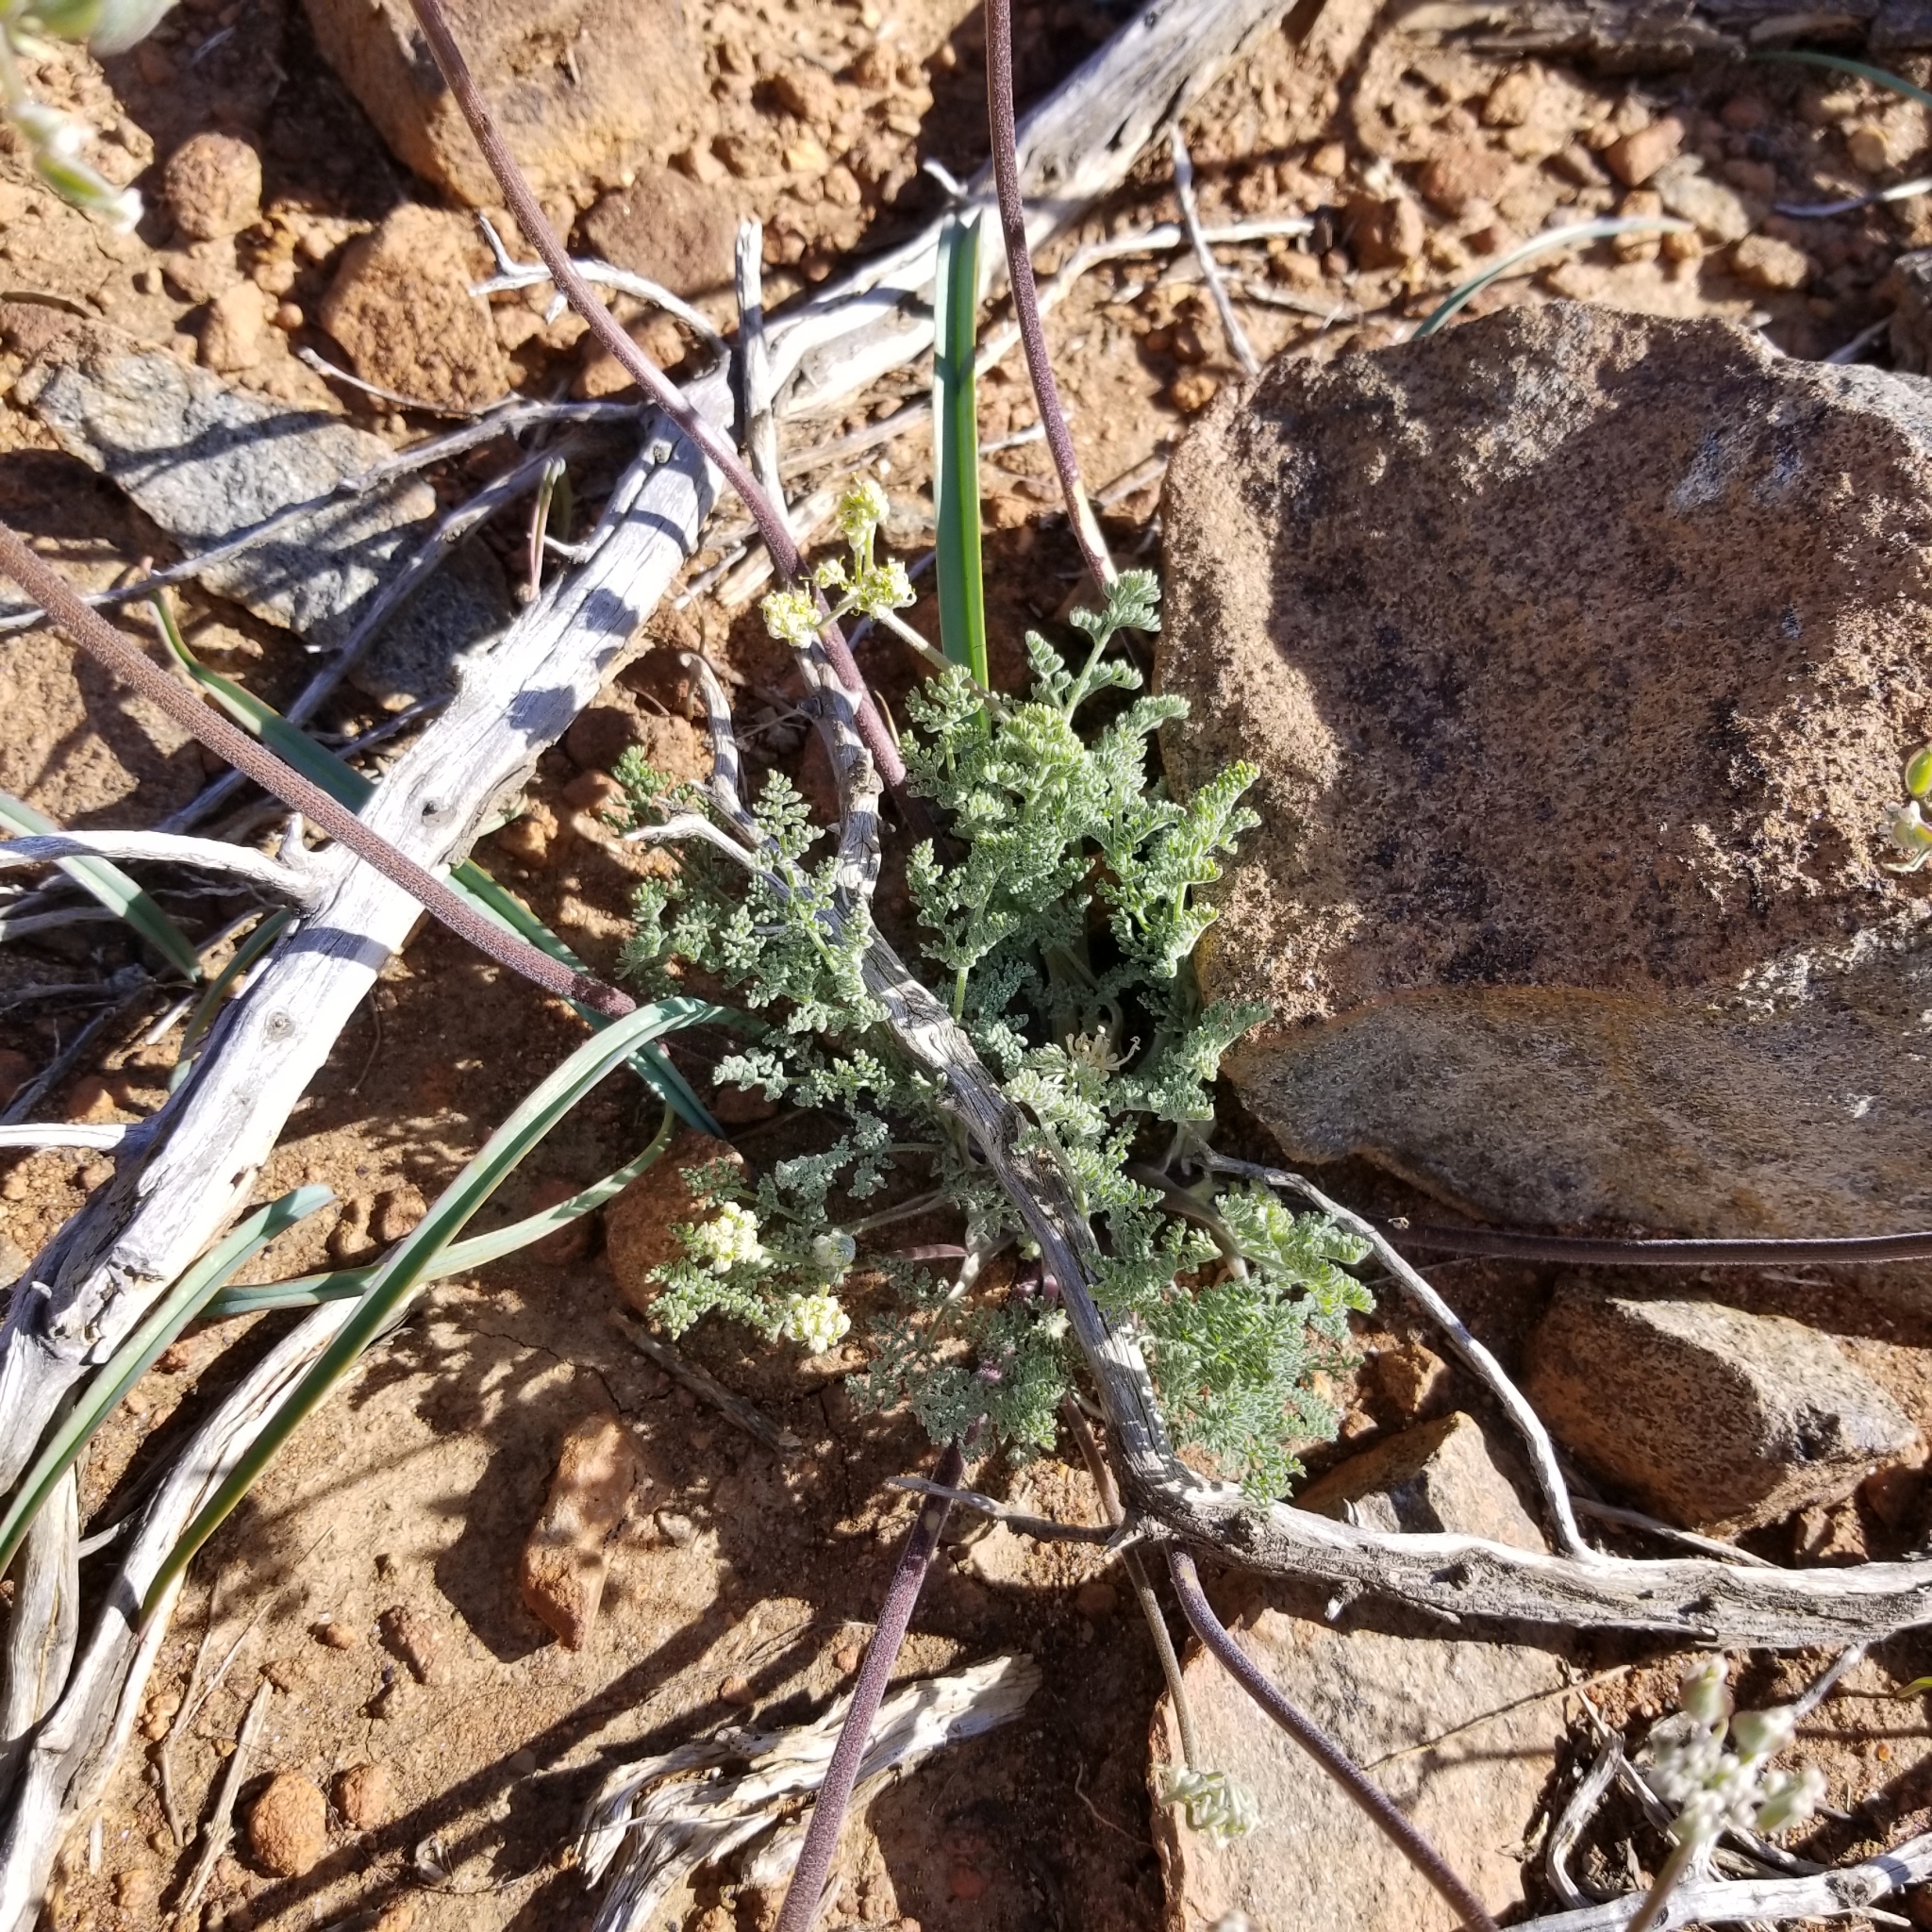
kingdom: Plantae
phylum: Tracheophyta
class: Magnoliopsida
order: Apiales
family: Apiaceae
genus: Lomatium
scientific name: Lomatium dasycarpum
